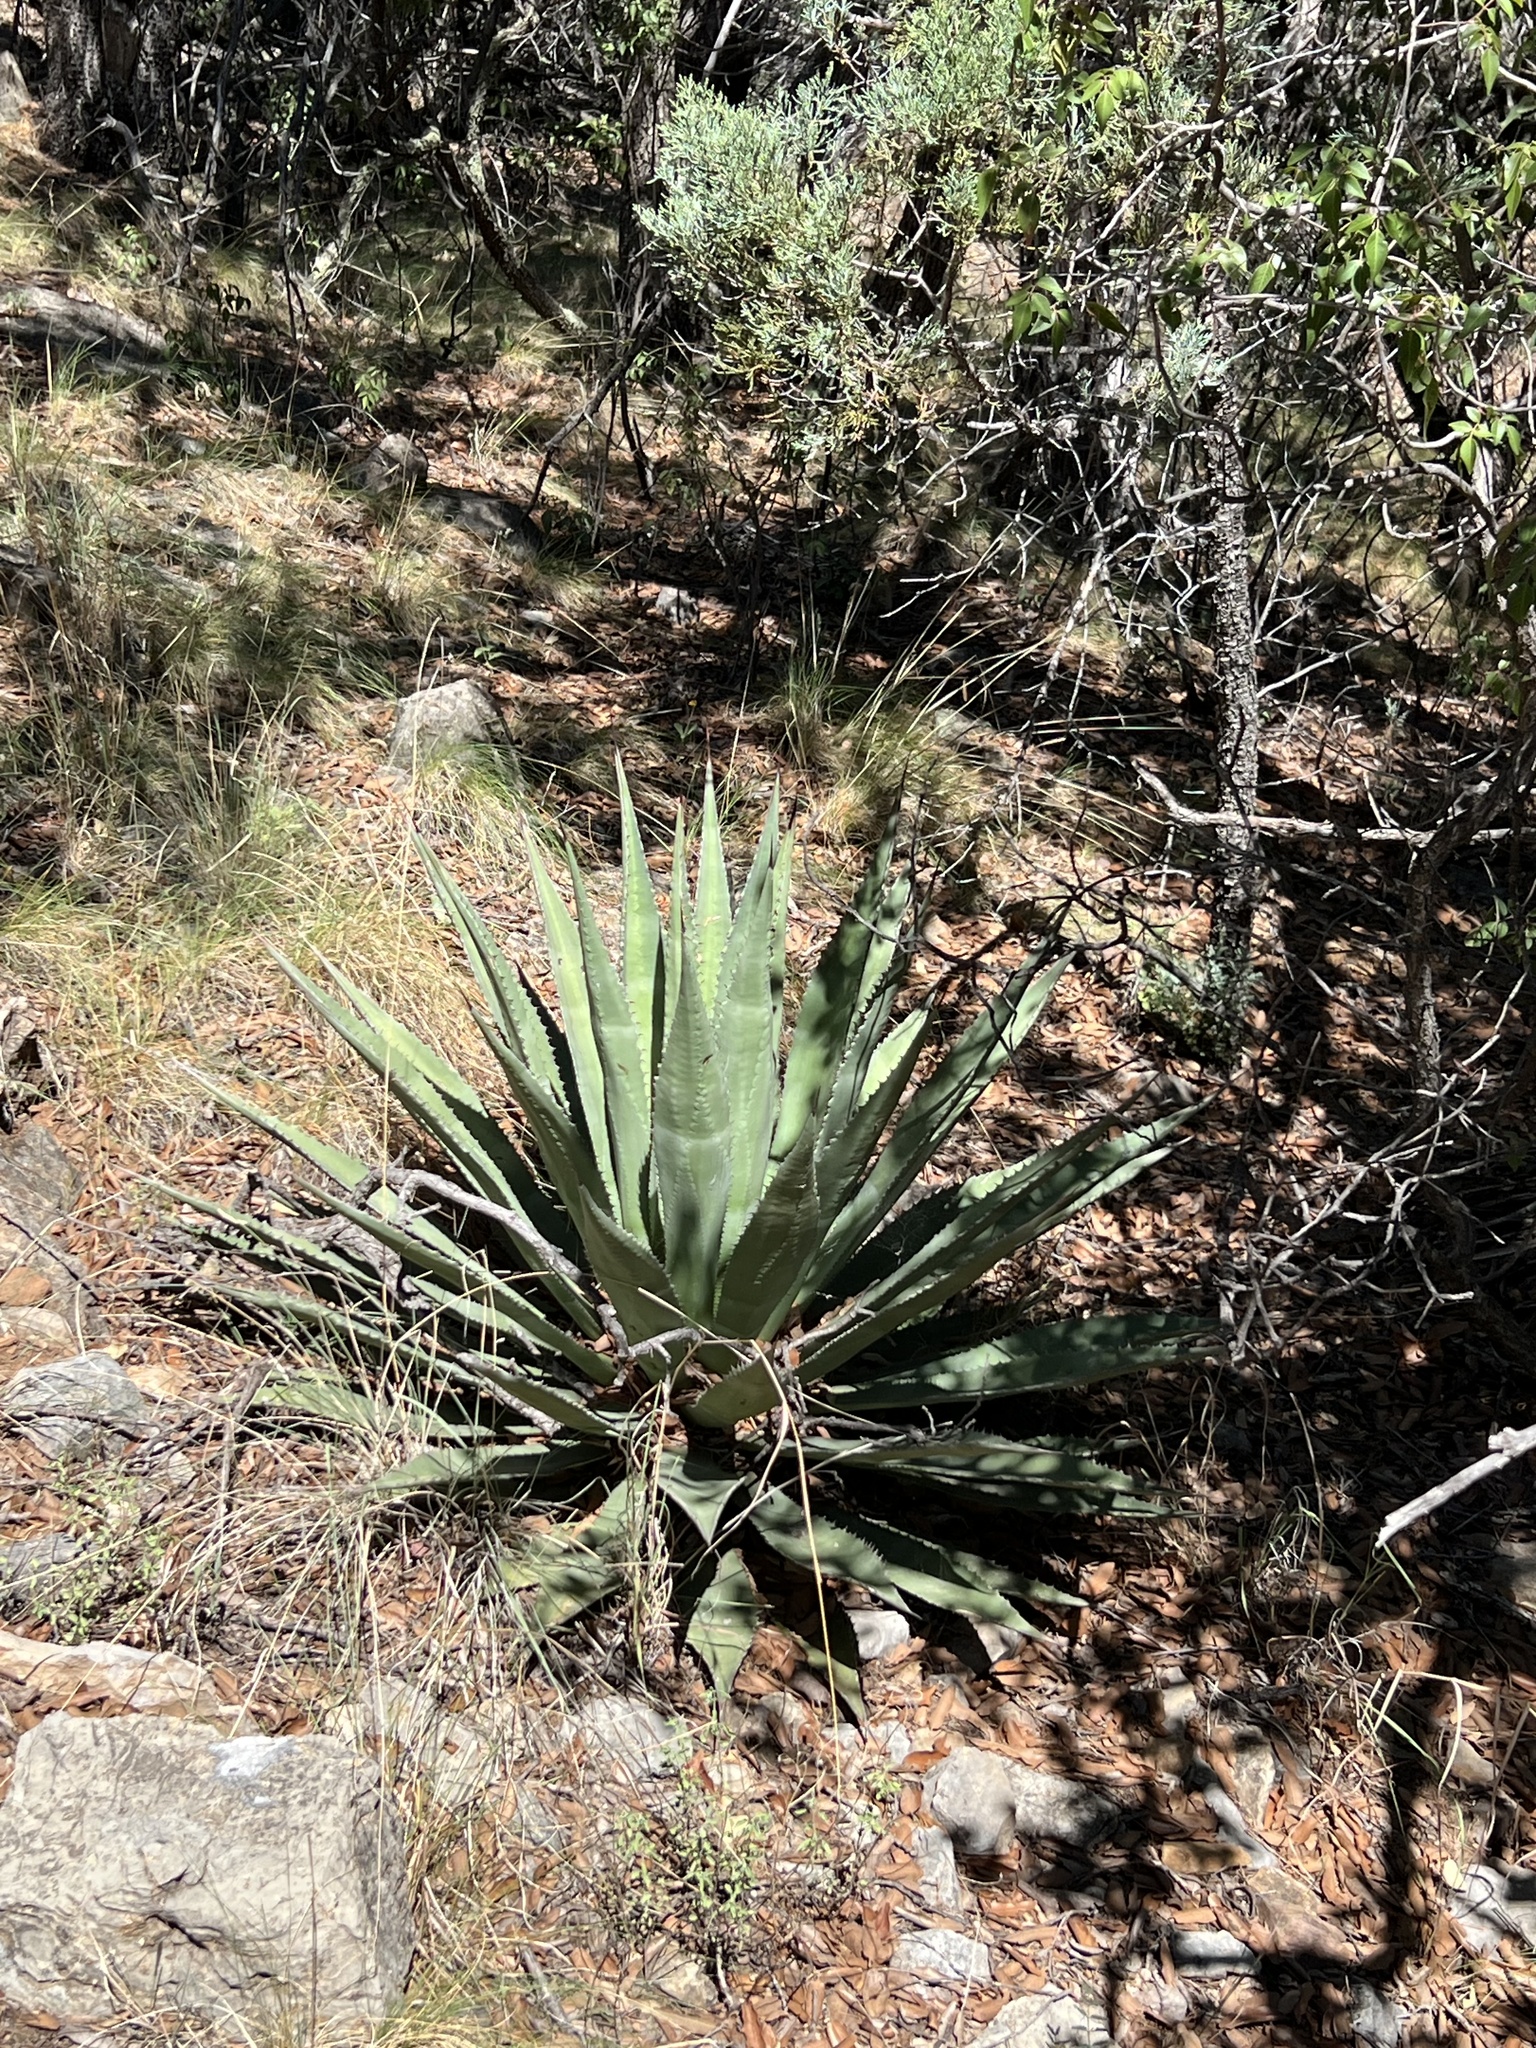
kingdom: Plantae
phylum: Tracheophyta
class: Liliopsida
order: Asparagales
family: Asparagaceae
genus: Agave
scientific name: Agave palmeri
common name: Palmer agave
